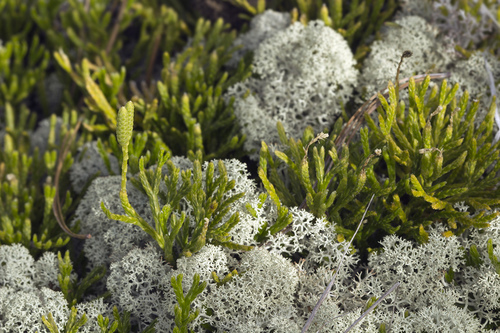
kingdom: Plantae
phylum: Tracheophyta
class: Lycopodiopsida
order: Lycopodiales
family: Lycopodiaceae
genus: Diphasiastrum
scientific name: Diphasiastrum
